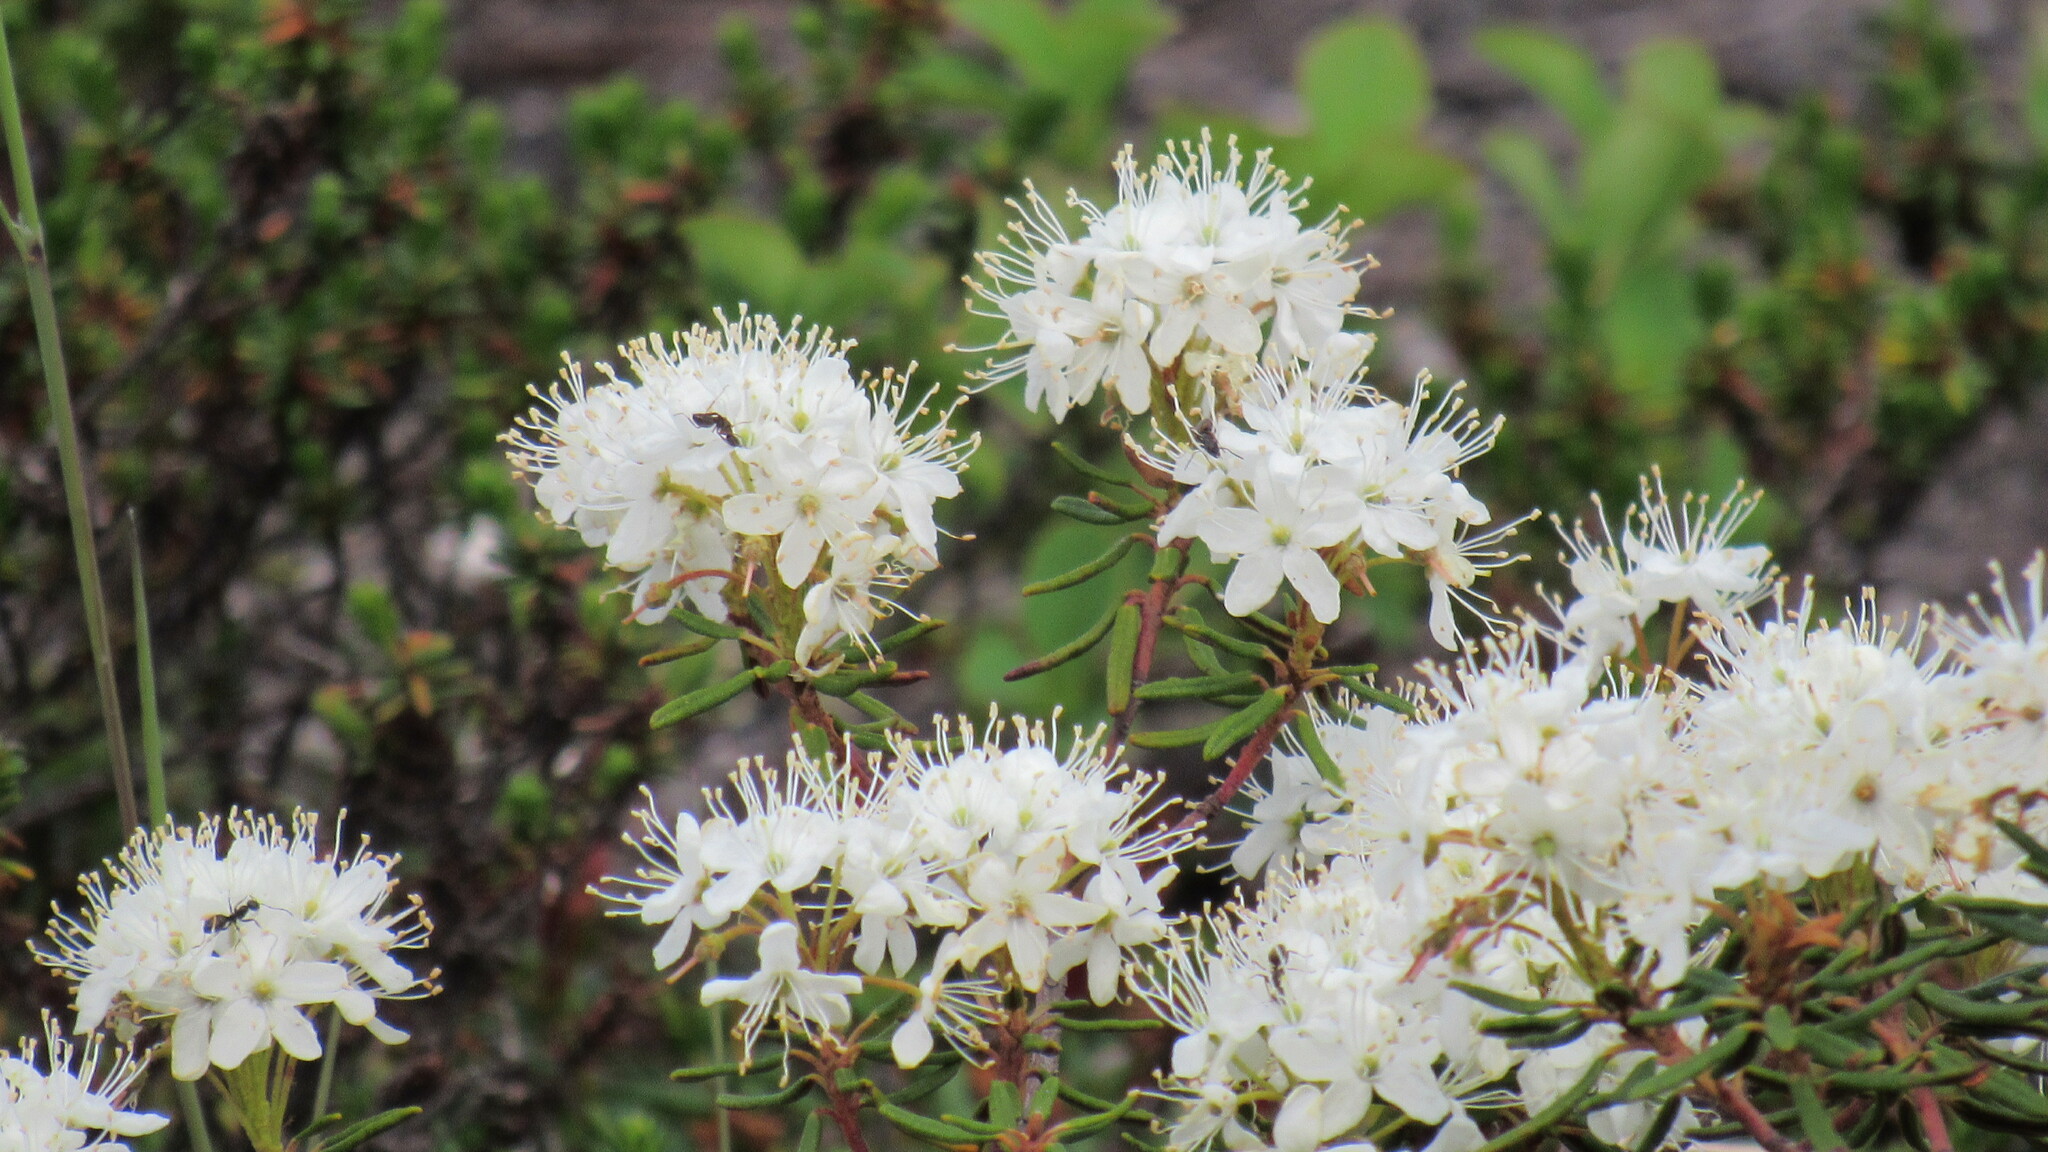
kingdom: Plantae
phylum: Tracheophyta
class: Magnoliopsida
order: Ericales
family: Ericaceae
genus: Rhododendron
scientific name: Rhododendron tomentosum
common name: Marsh labrador tea
